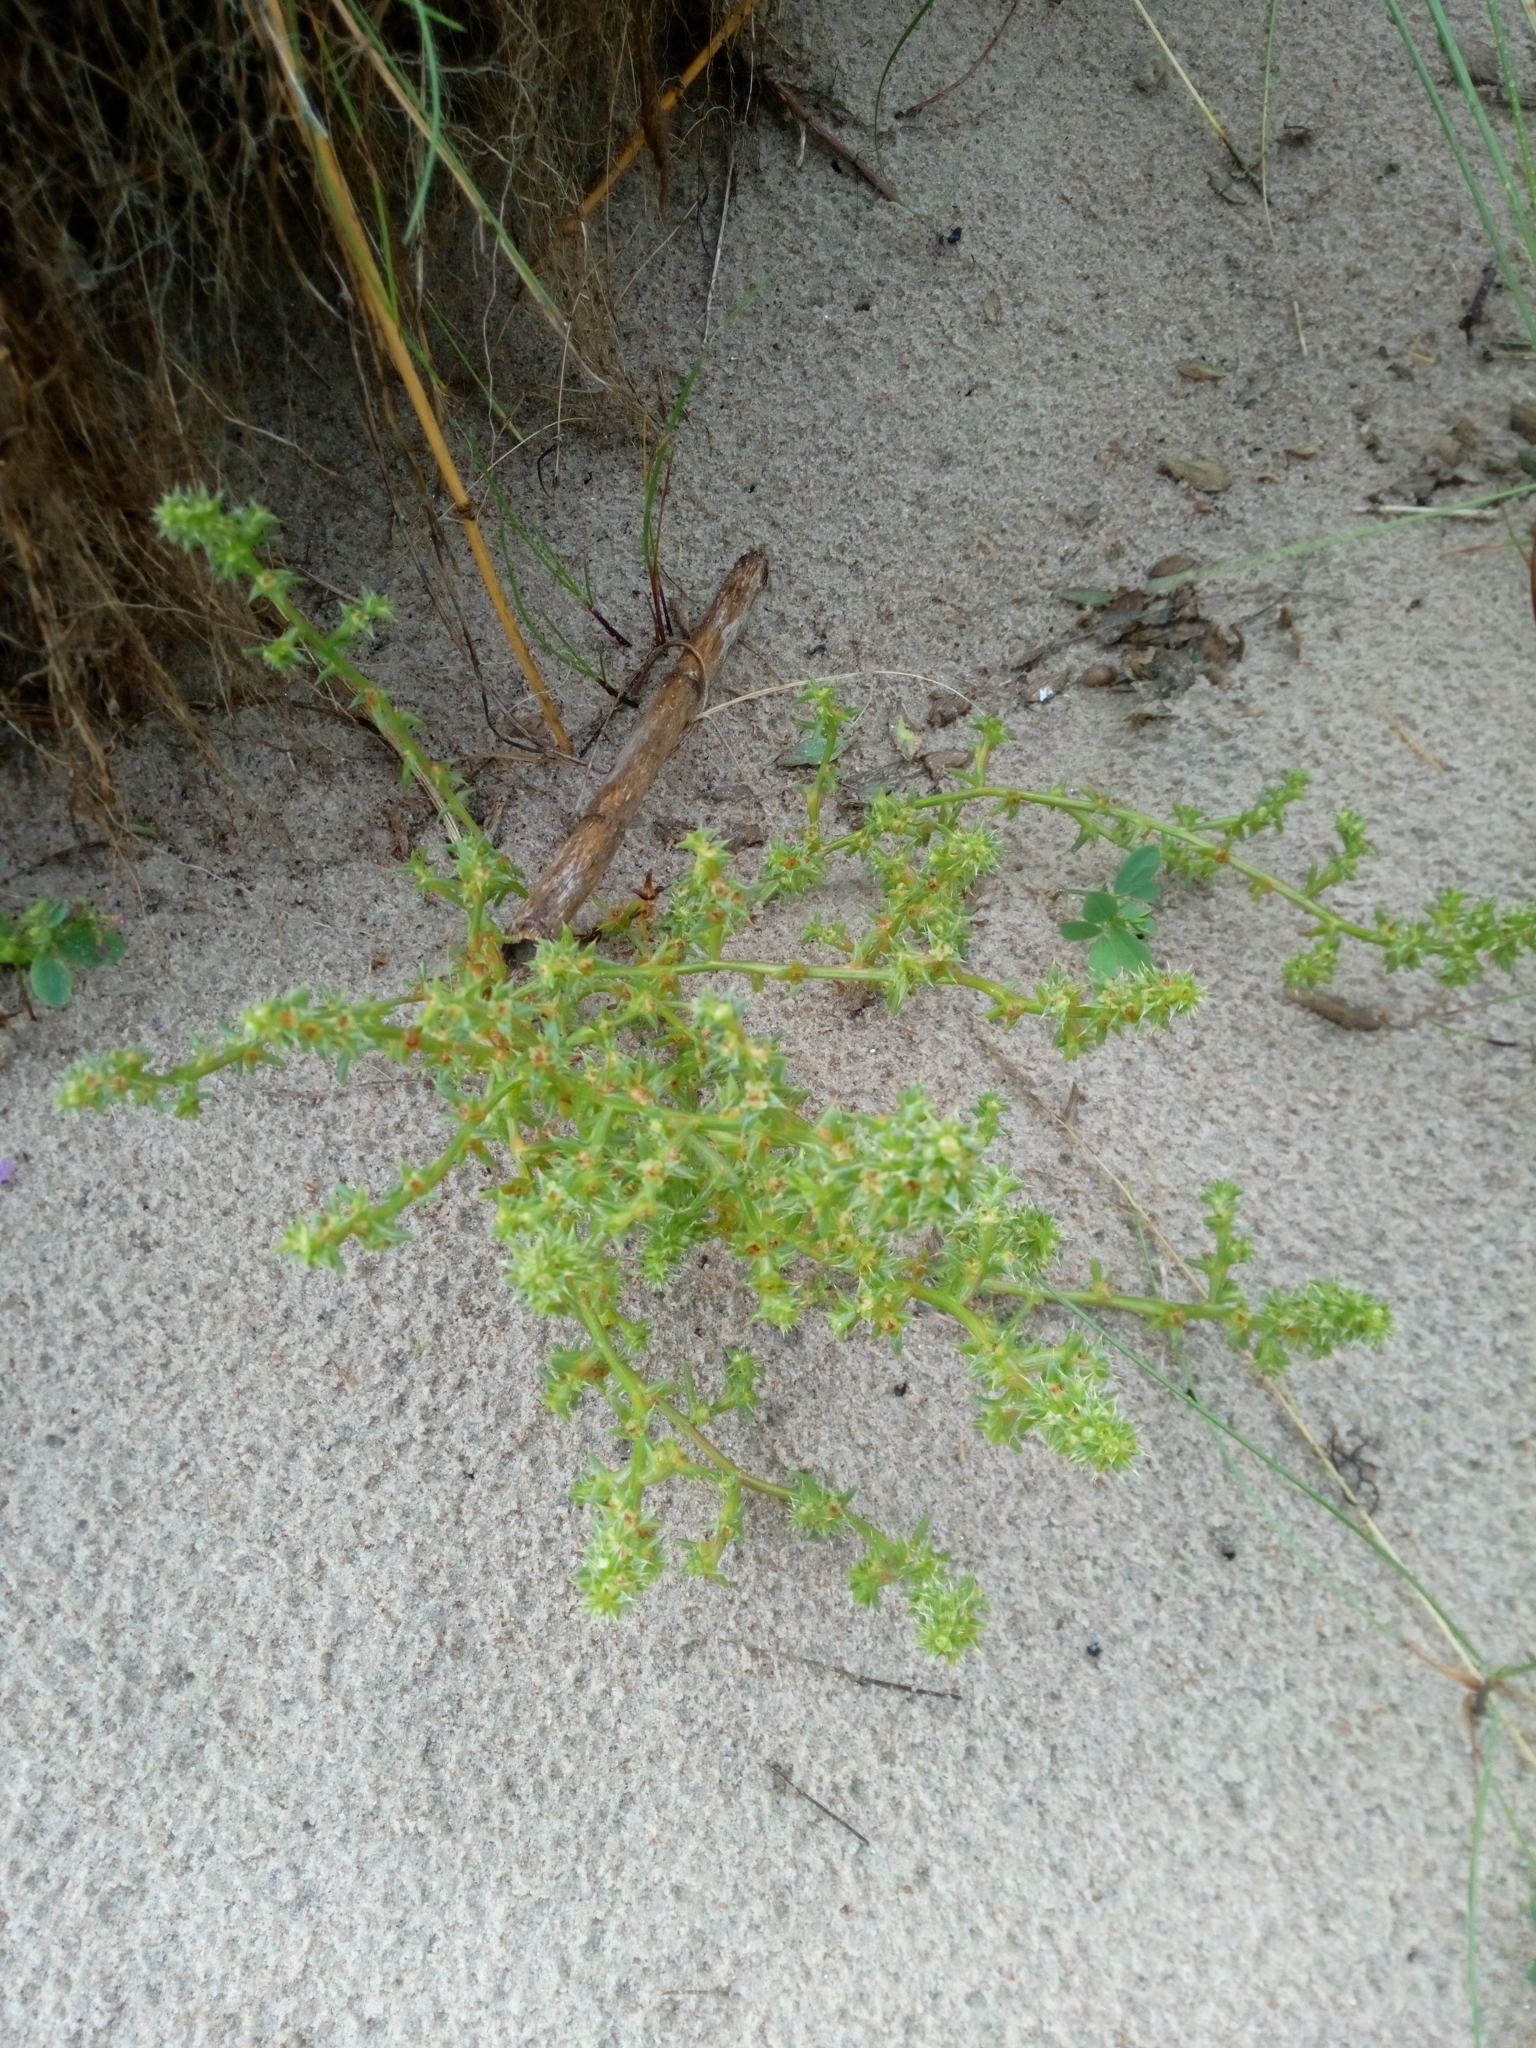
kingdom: Plantae
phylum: Tracheophyta
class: Magnoliopsida
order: Caryophyllales
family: Amaranthaceae
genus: Salsola
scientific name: Salsola kali
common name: Saltwort
